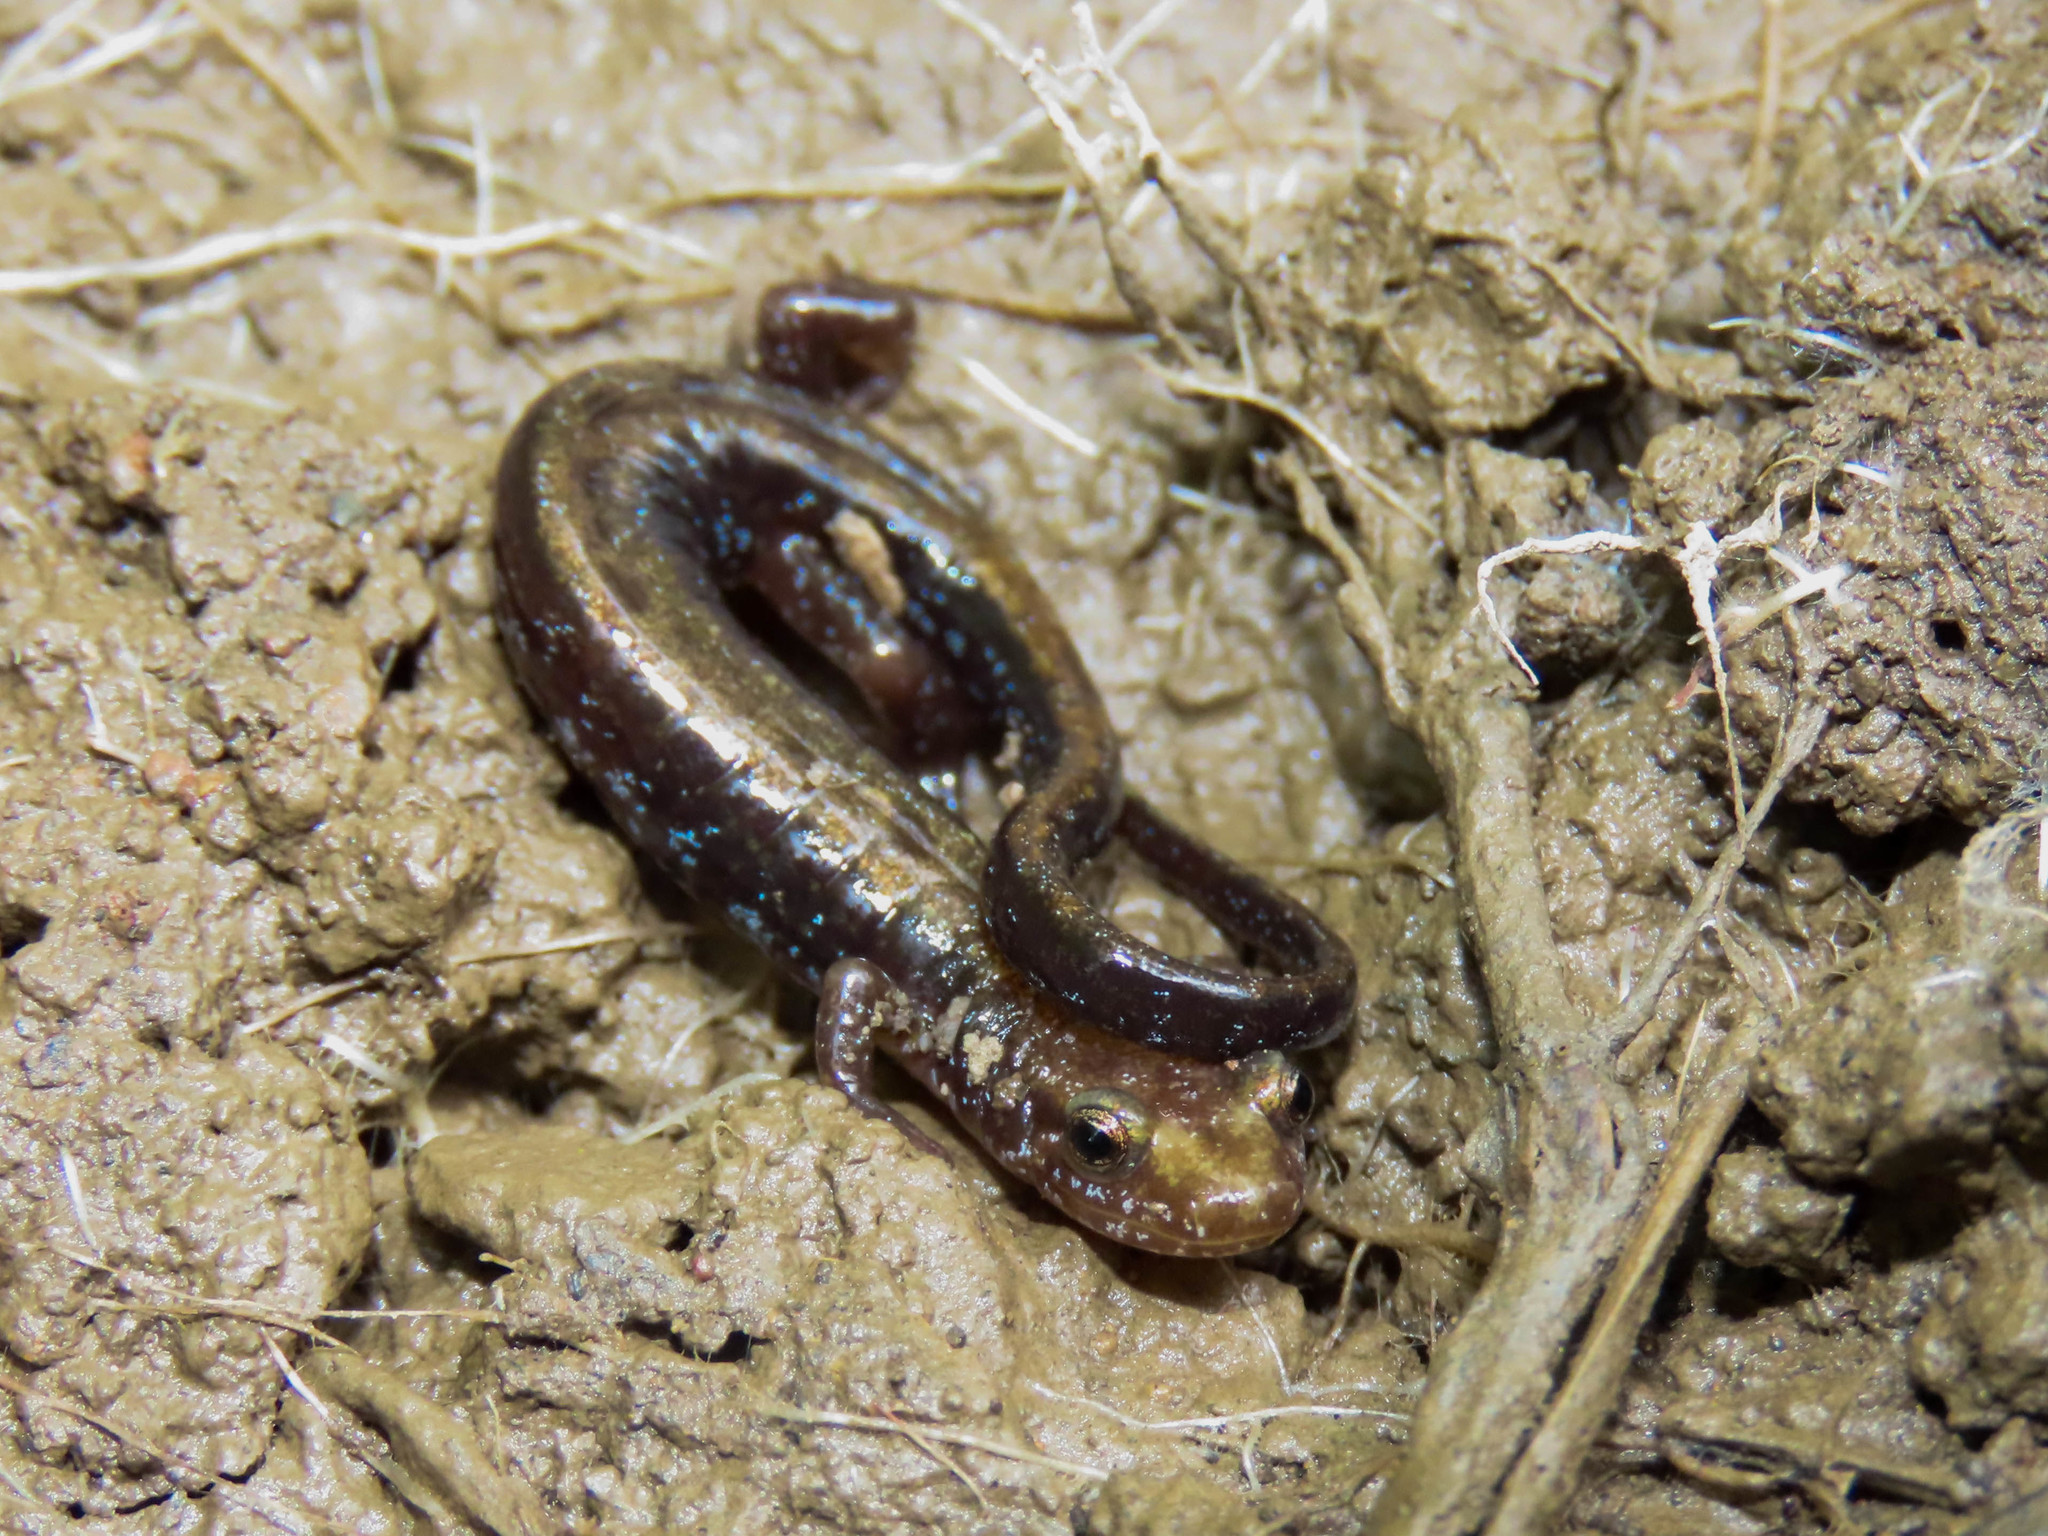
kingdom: Animalia
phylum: Chordata
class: Amphibia
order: Caudata
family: Plethodontidae
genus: Desmognathus
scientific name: Desmognathus ochrophaeus
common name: Allegheny mountain dusky salamander
